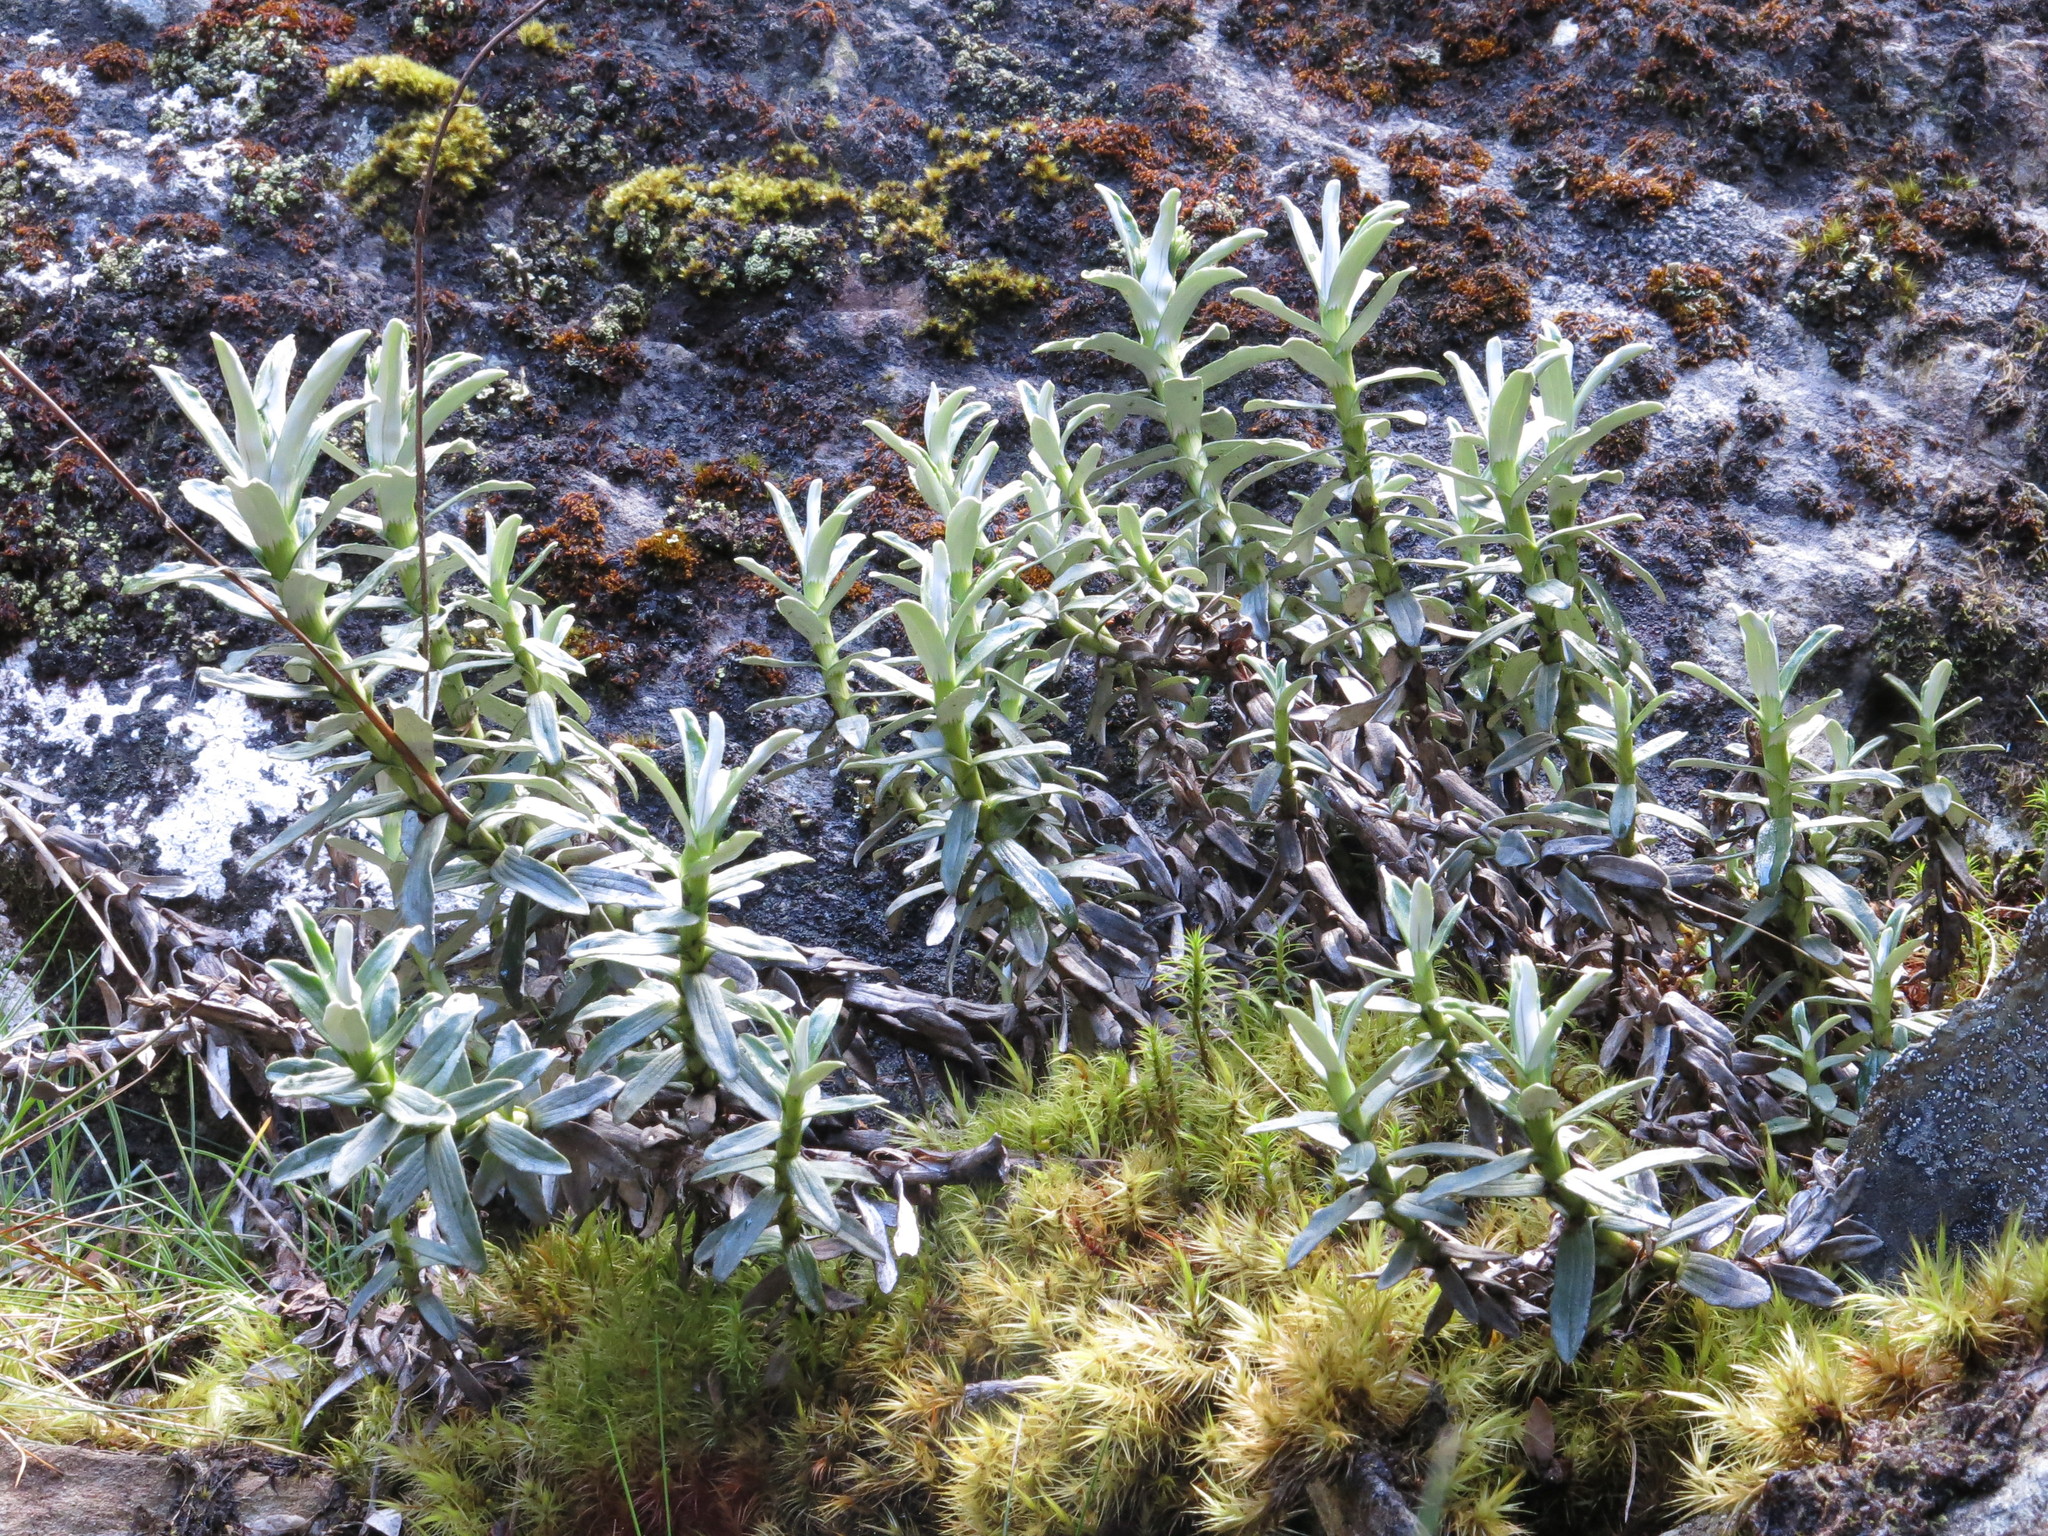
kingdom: Plantae
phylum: Tracheophyta
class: Magnoliopsida
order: Asterales
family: Asteraceae
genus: Celmisia
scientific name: Celmisia angustifolia
